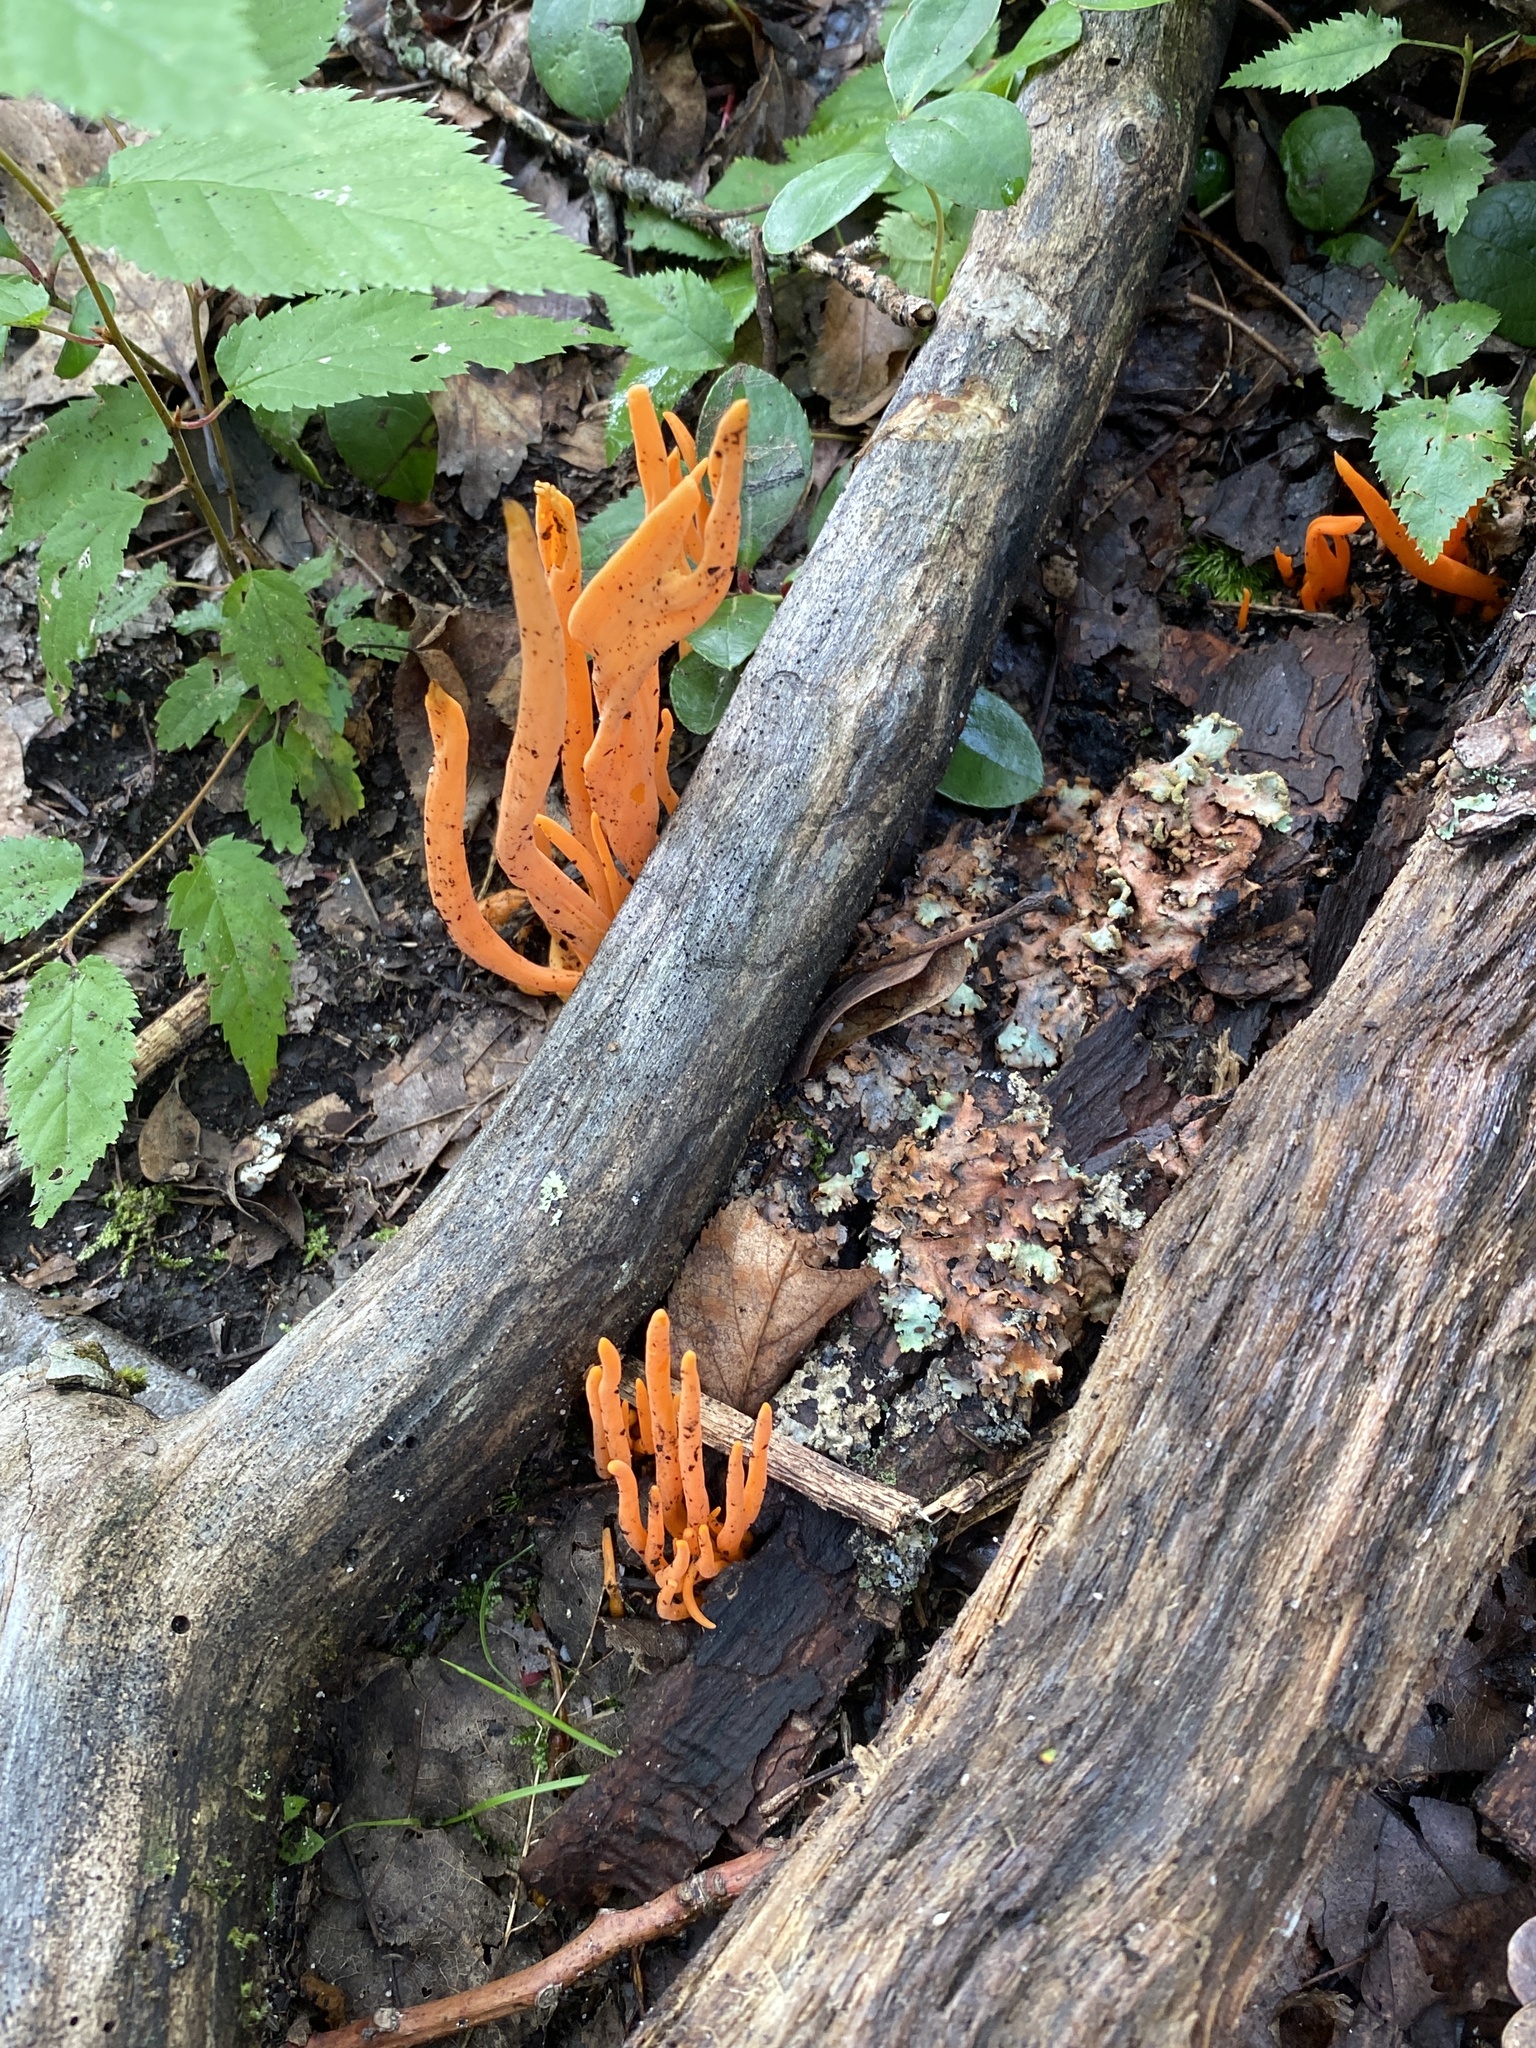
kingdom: Fungi
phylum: Basidiomycota
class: Agaricomycetes
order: Agaricales
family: Clavariaceae
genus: Clavulinopsis
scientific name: Clavulinopsis aurantiocinnabarina
